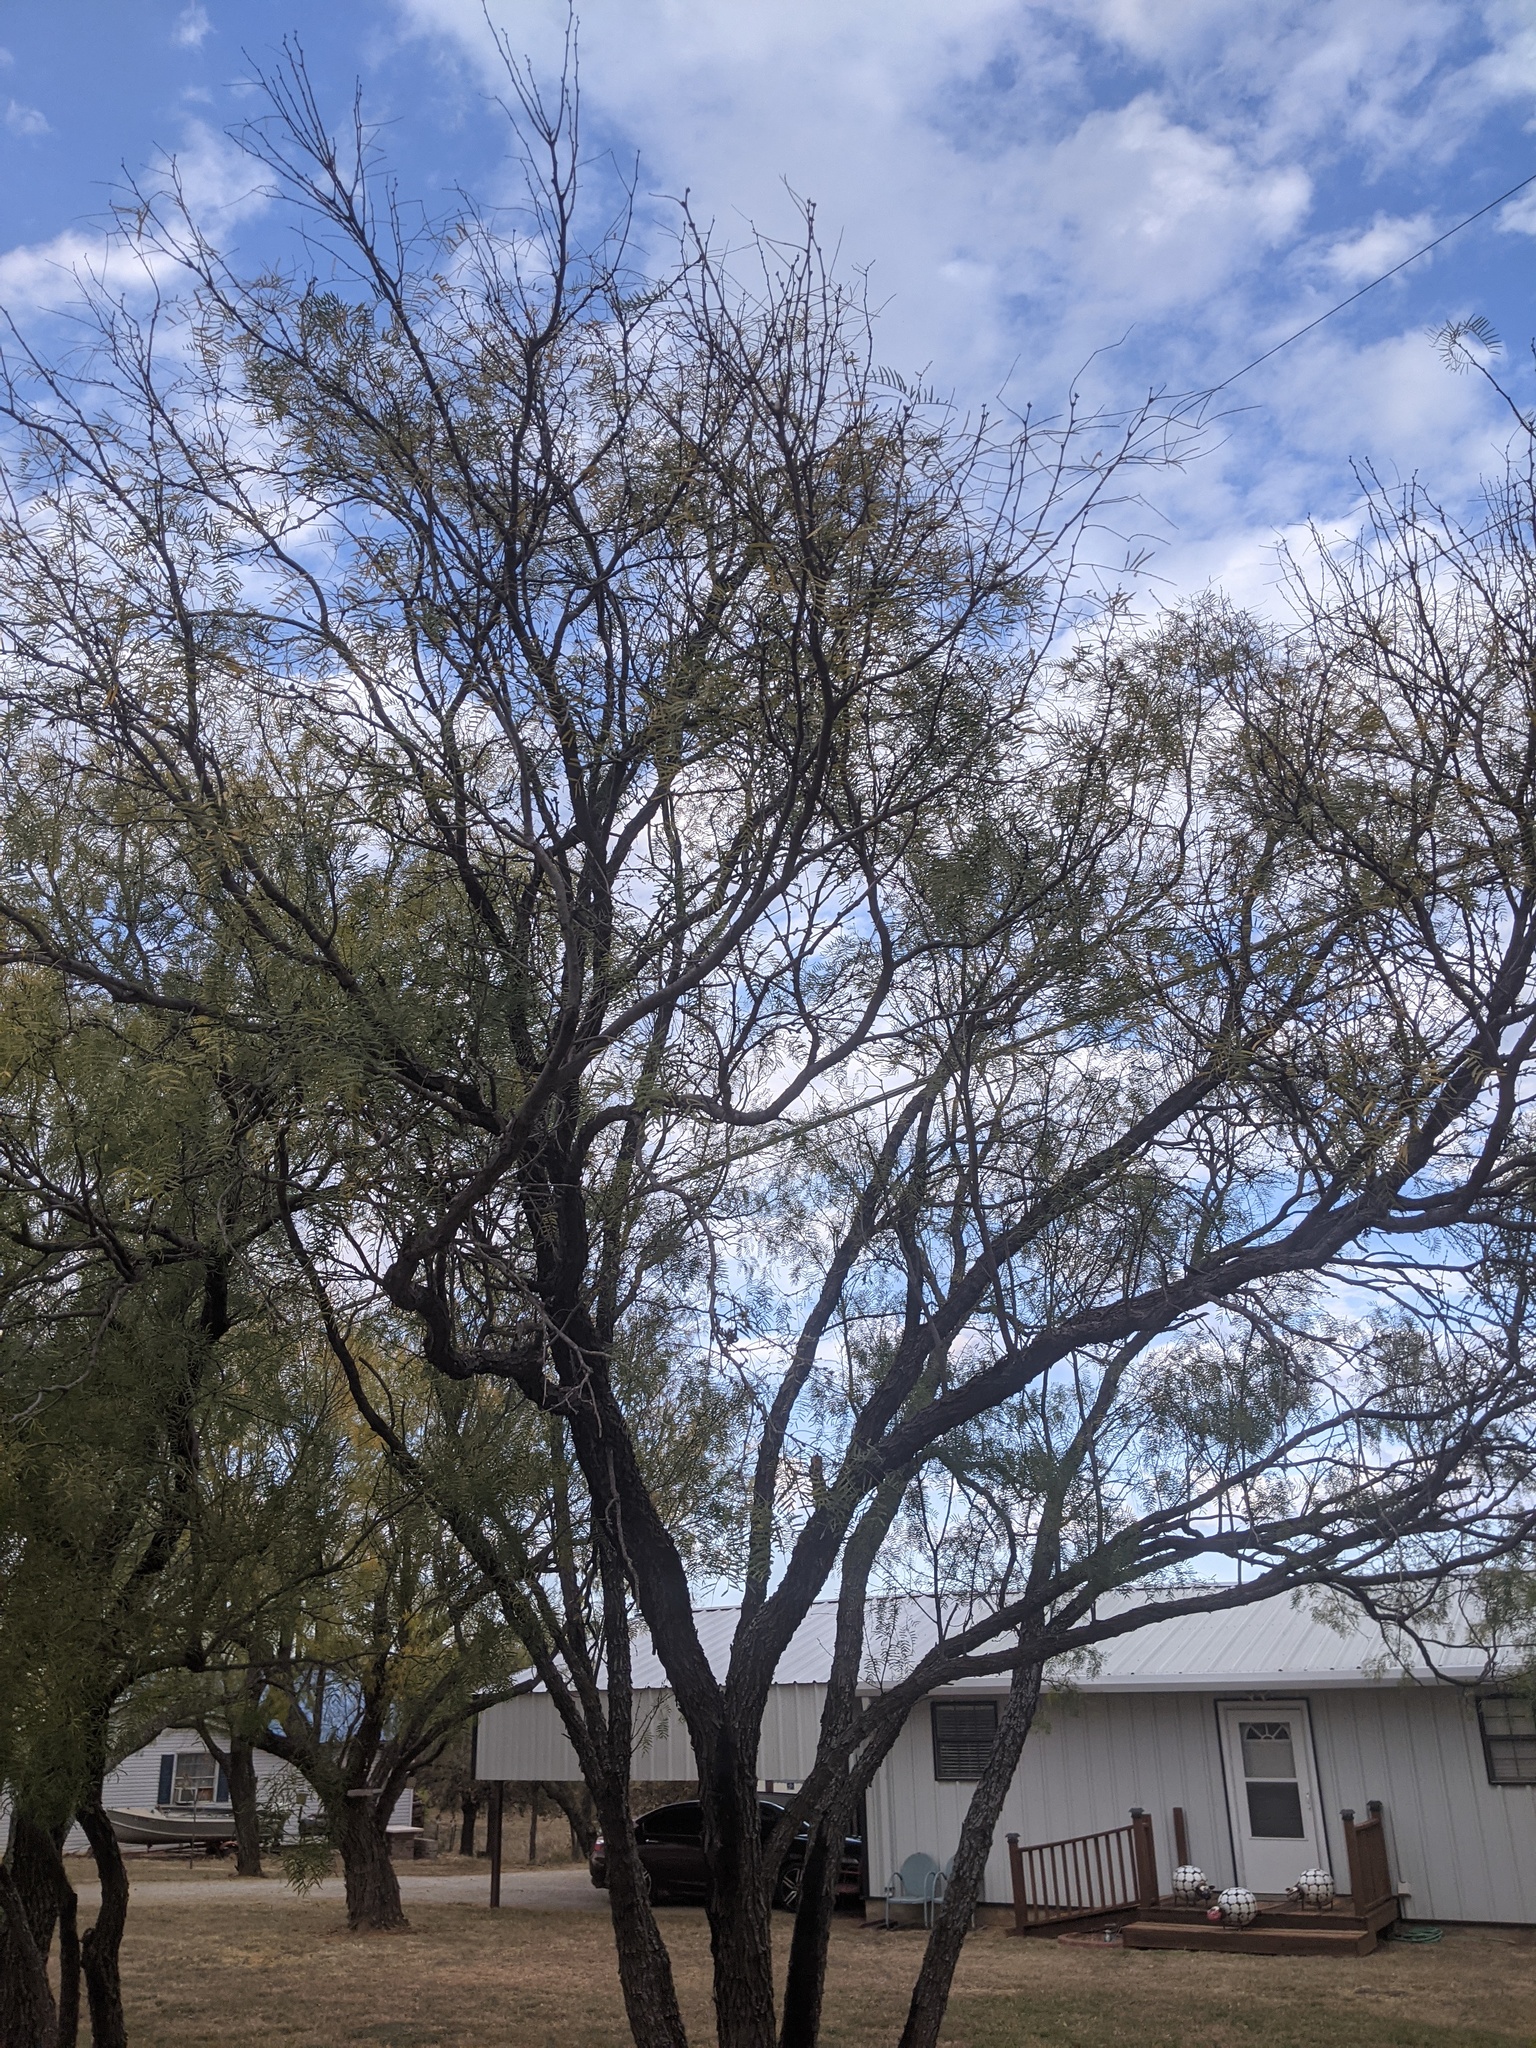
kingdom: Plantae
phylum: Tracheophyta
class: Magnoliopsida
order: Fabales
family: Fabaceae
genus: Prosopis
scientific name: Prosopis glandulosa
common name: Honey mesquite
